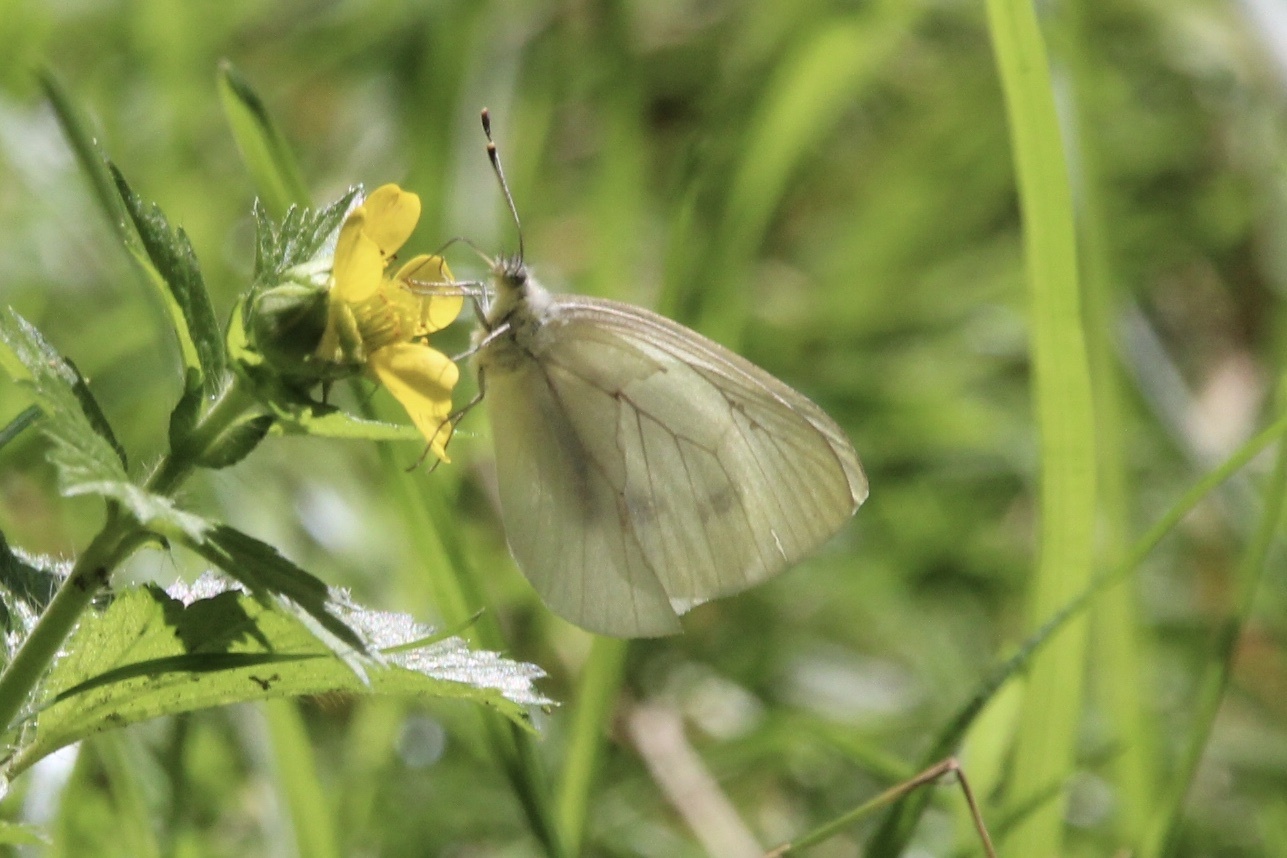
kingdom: Animalia
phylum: Arthropoda
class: Insecta
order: Lepidoptera
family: Pieridae
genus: Pieris
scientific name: Pieris marginalis
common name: Margined white
